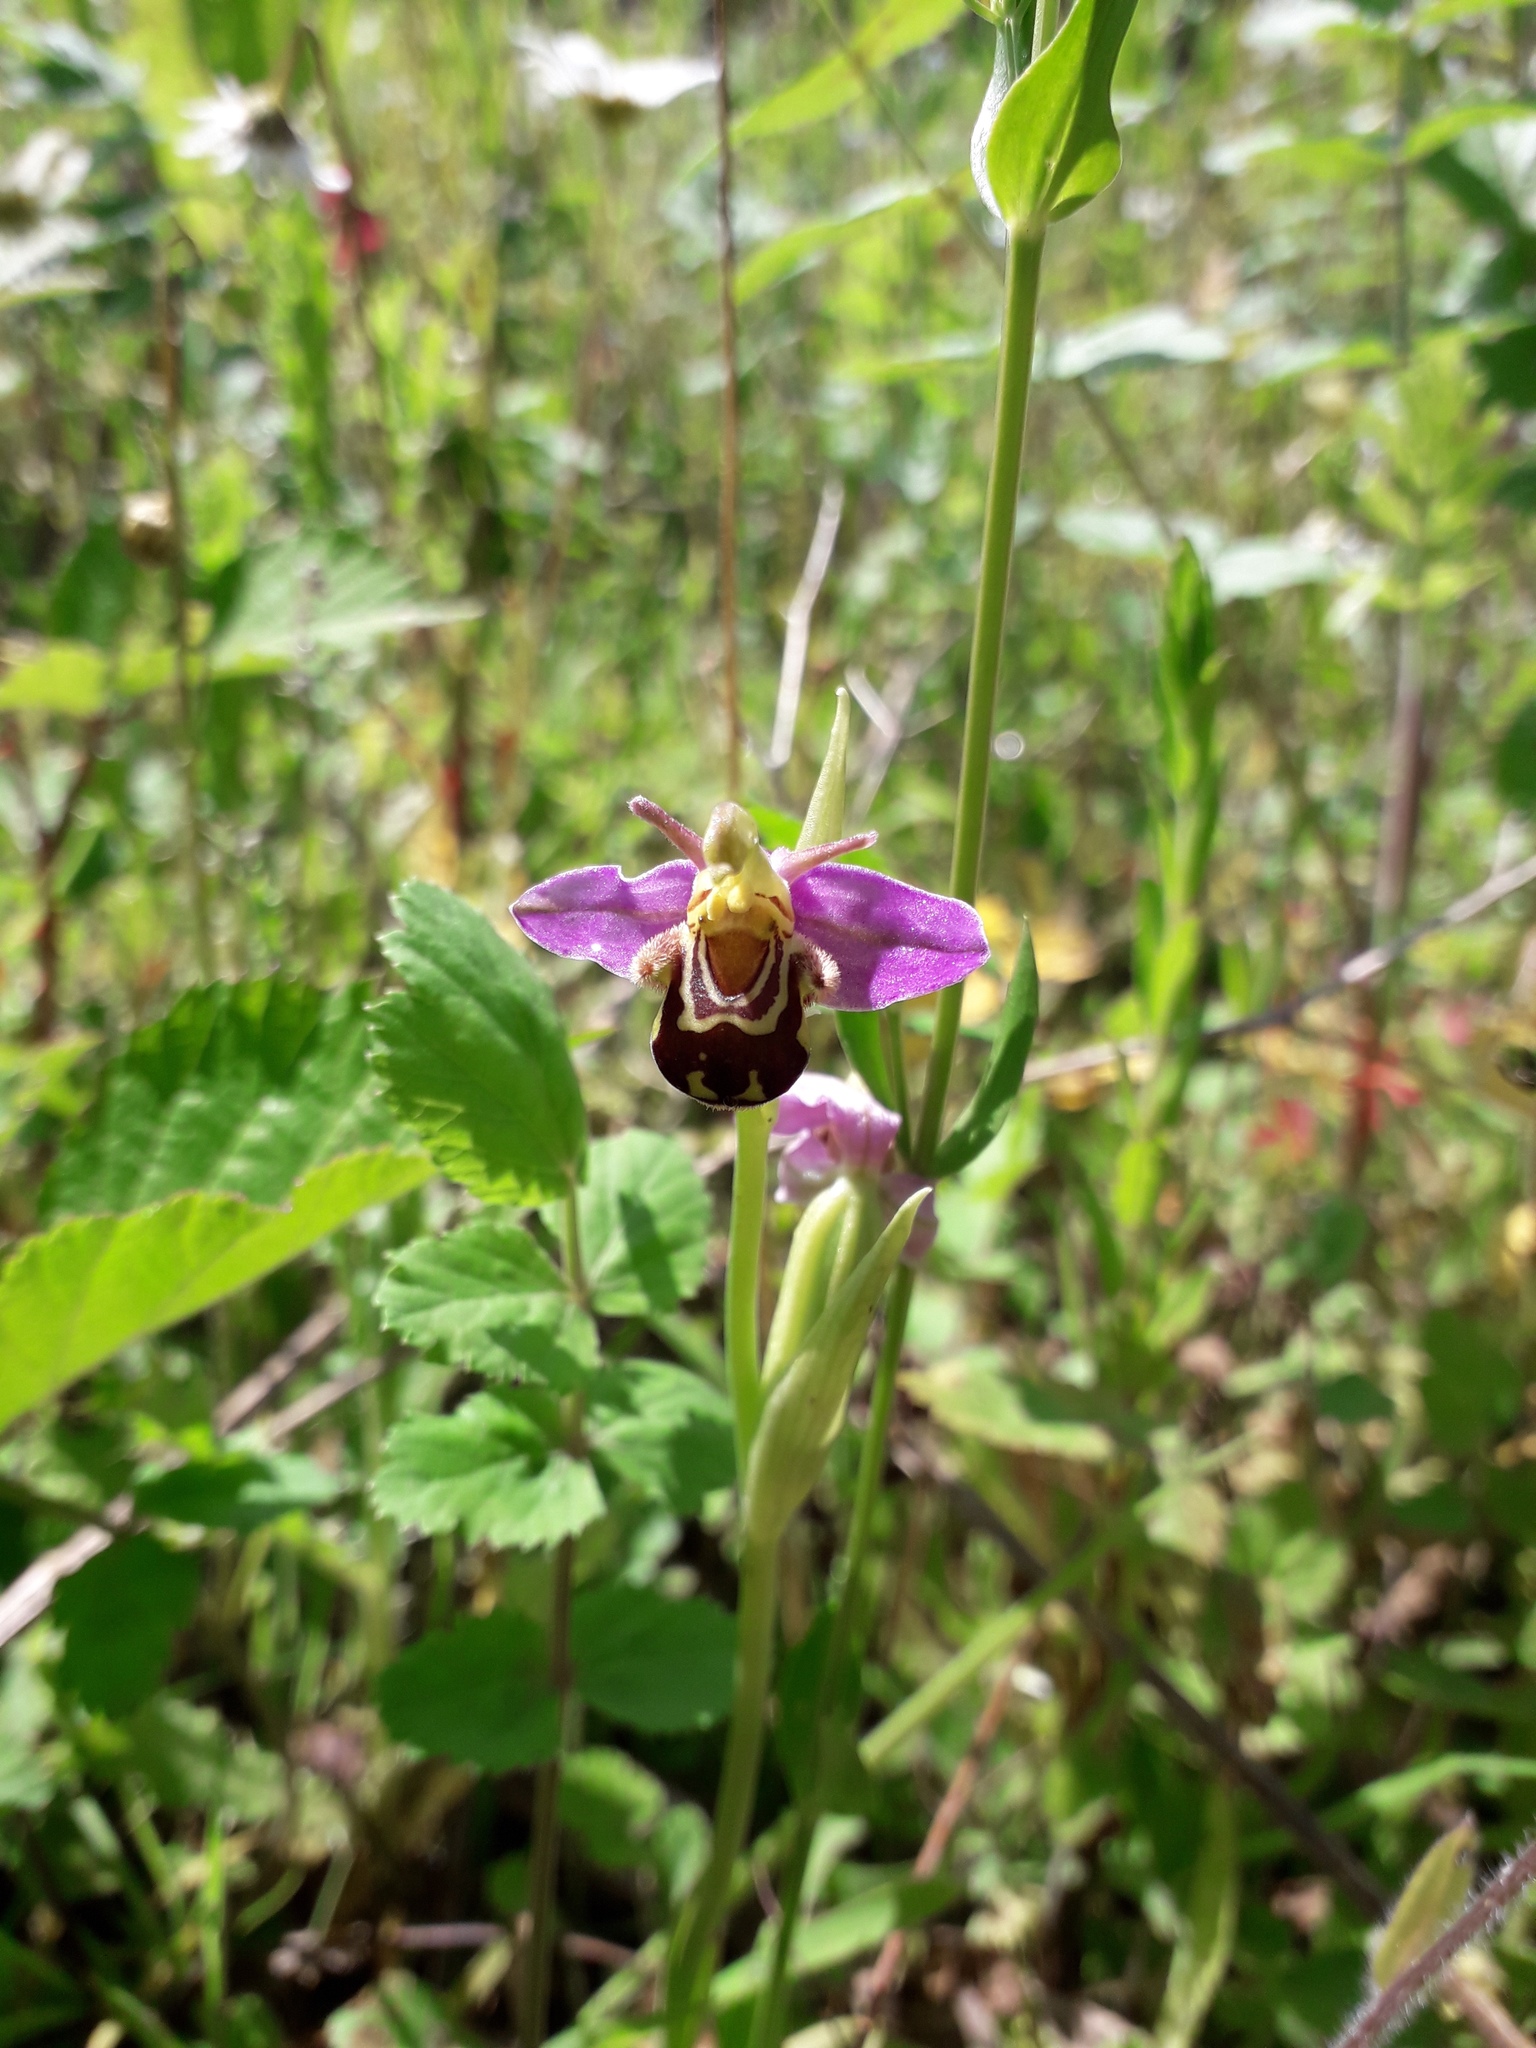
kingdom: Plantae
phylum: Tracheophyta
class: Liliopsida
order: Asparagales
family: Orchidaceae
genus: Ophrys
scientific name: Ophrys apifera
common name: Bee orchid
